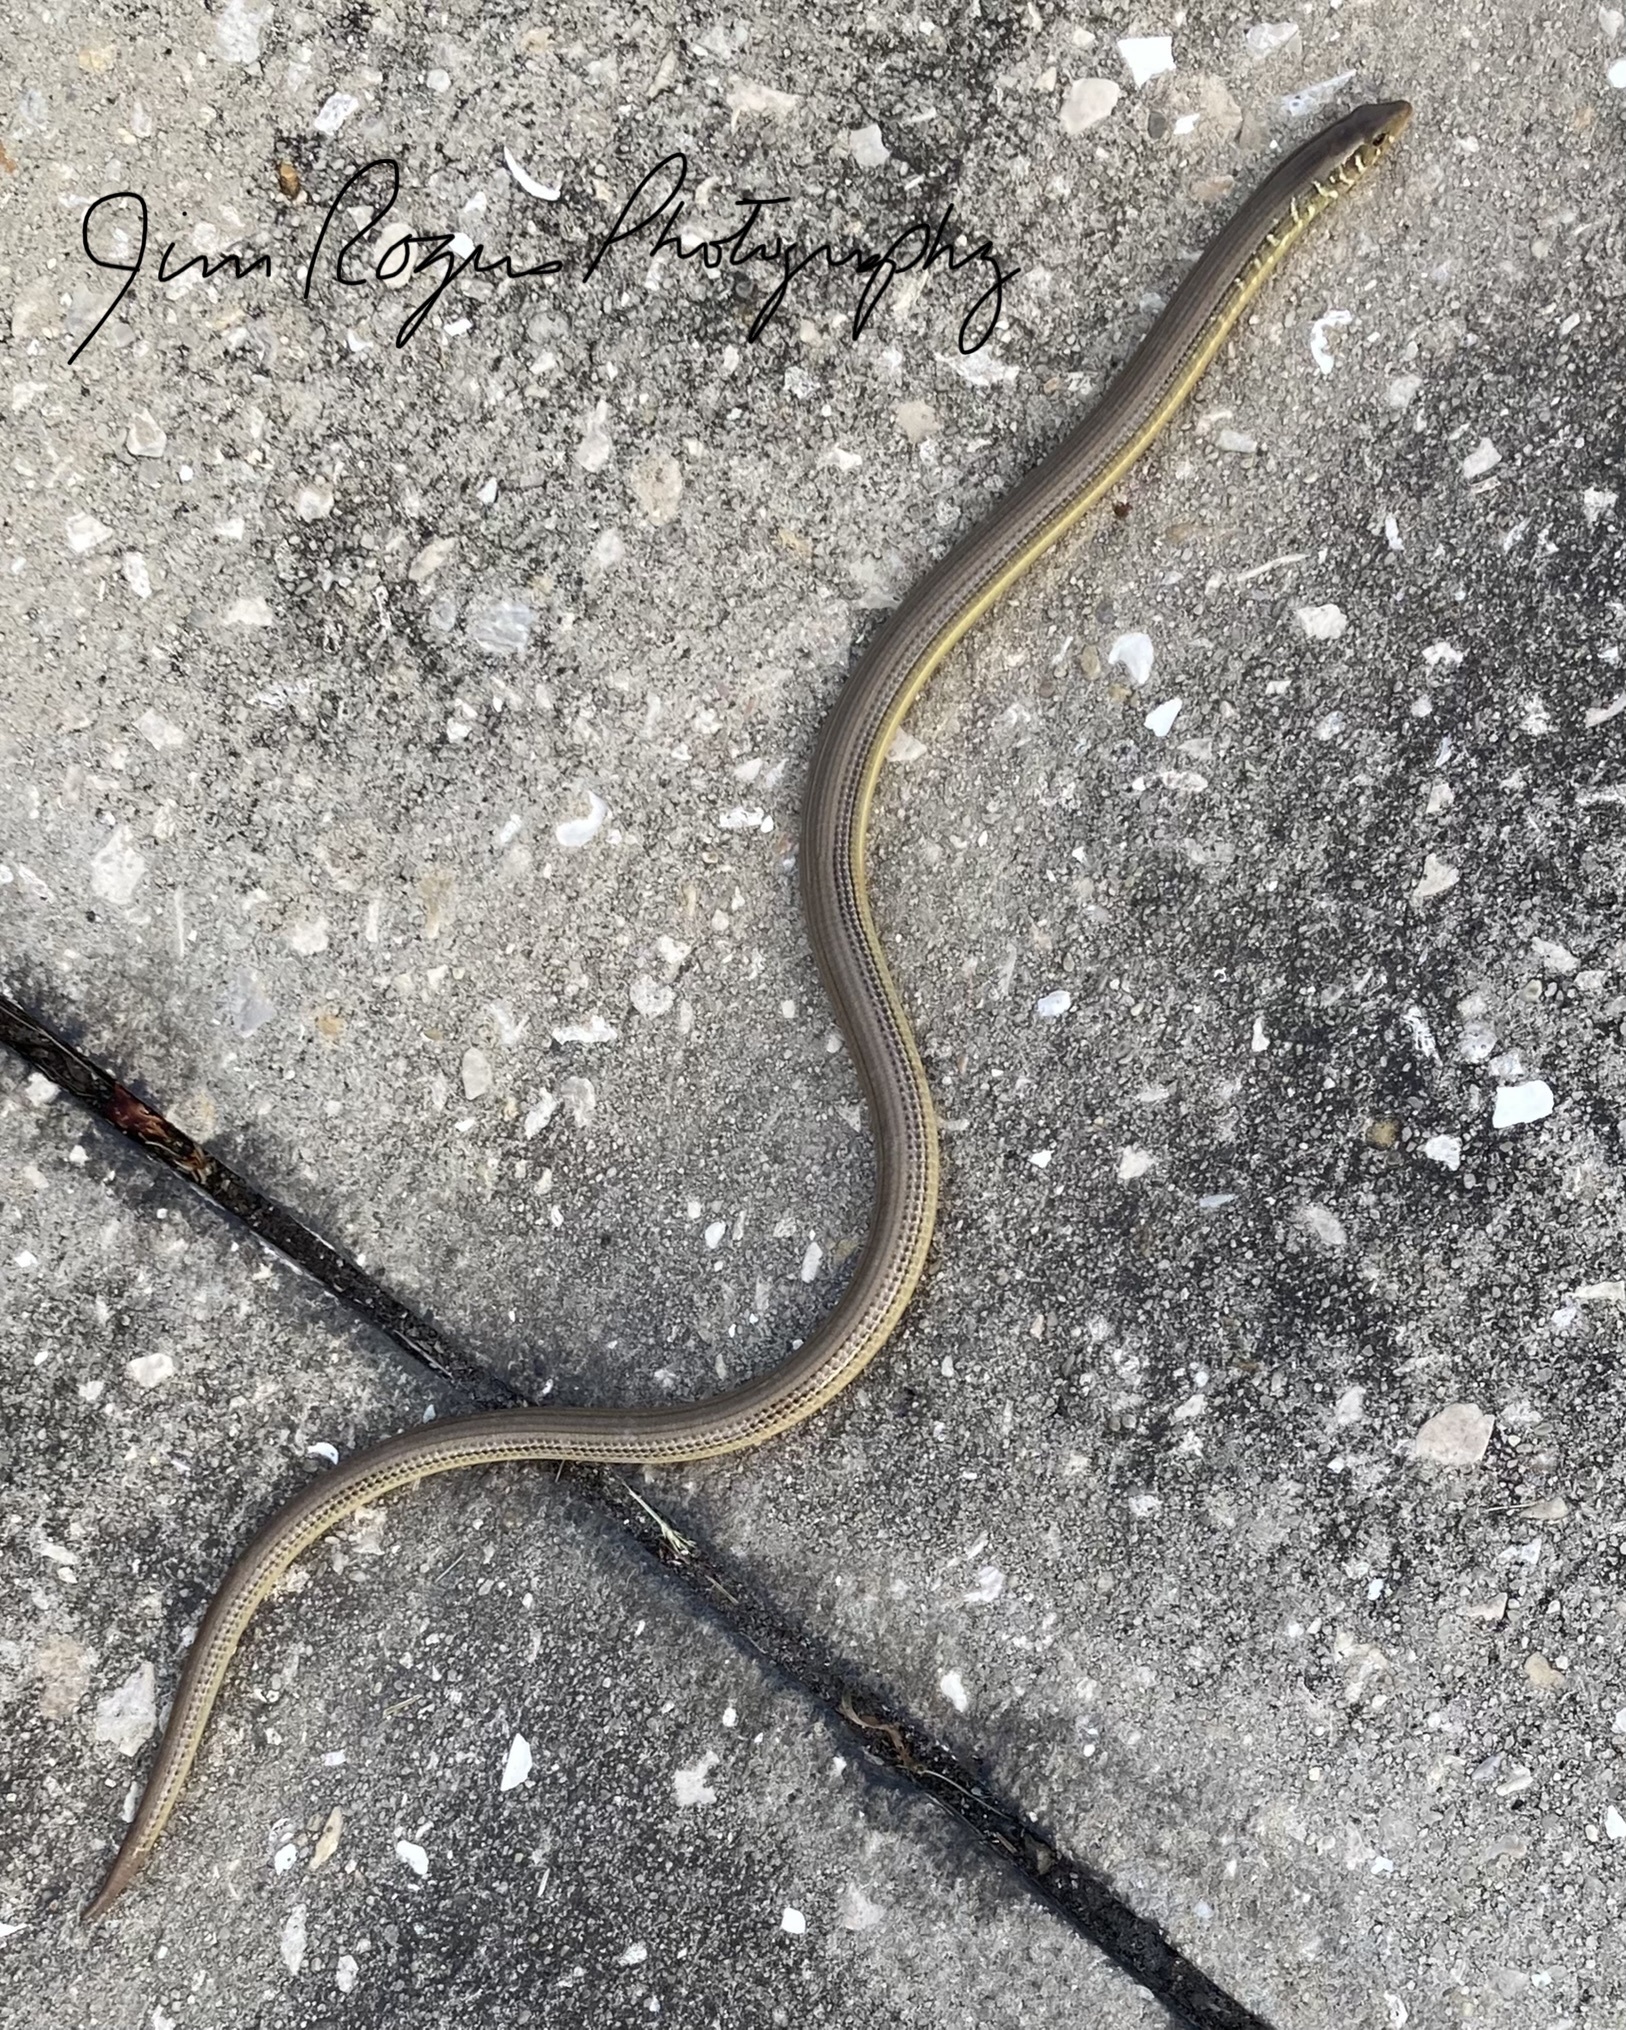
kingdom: Animalia
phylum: Chordata
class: Squamata
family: Anguidae
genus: Ophisaurus
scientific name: Ophisaurus ventralis
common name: Eastern glass lizard
